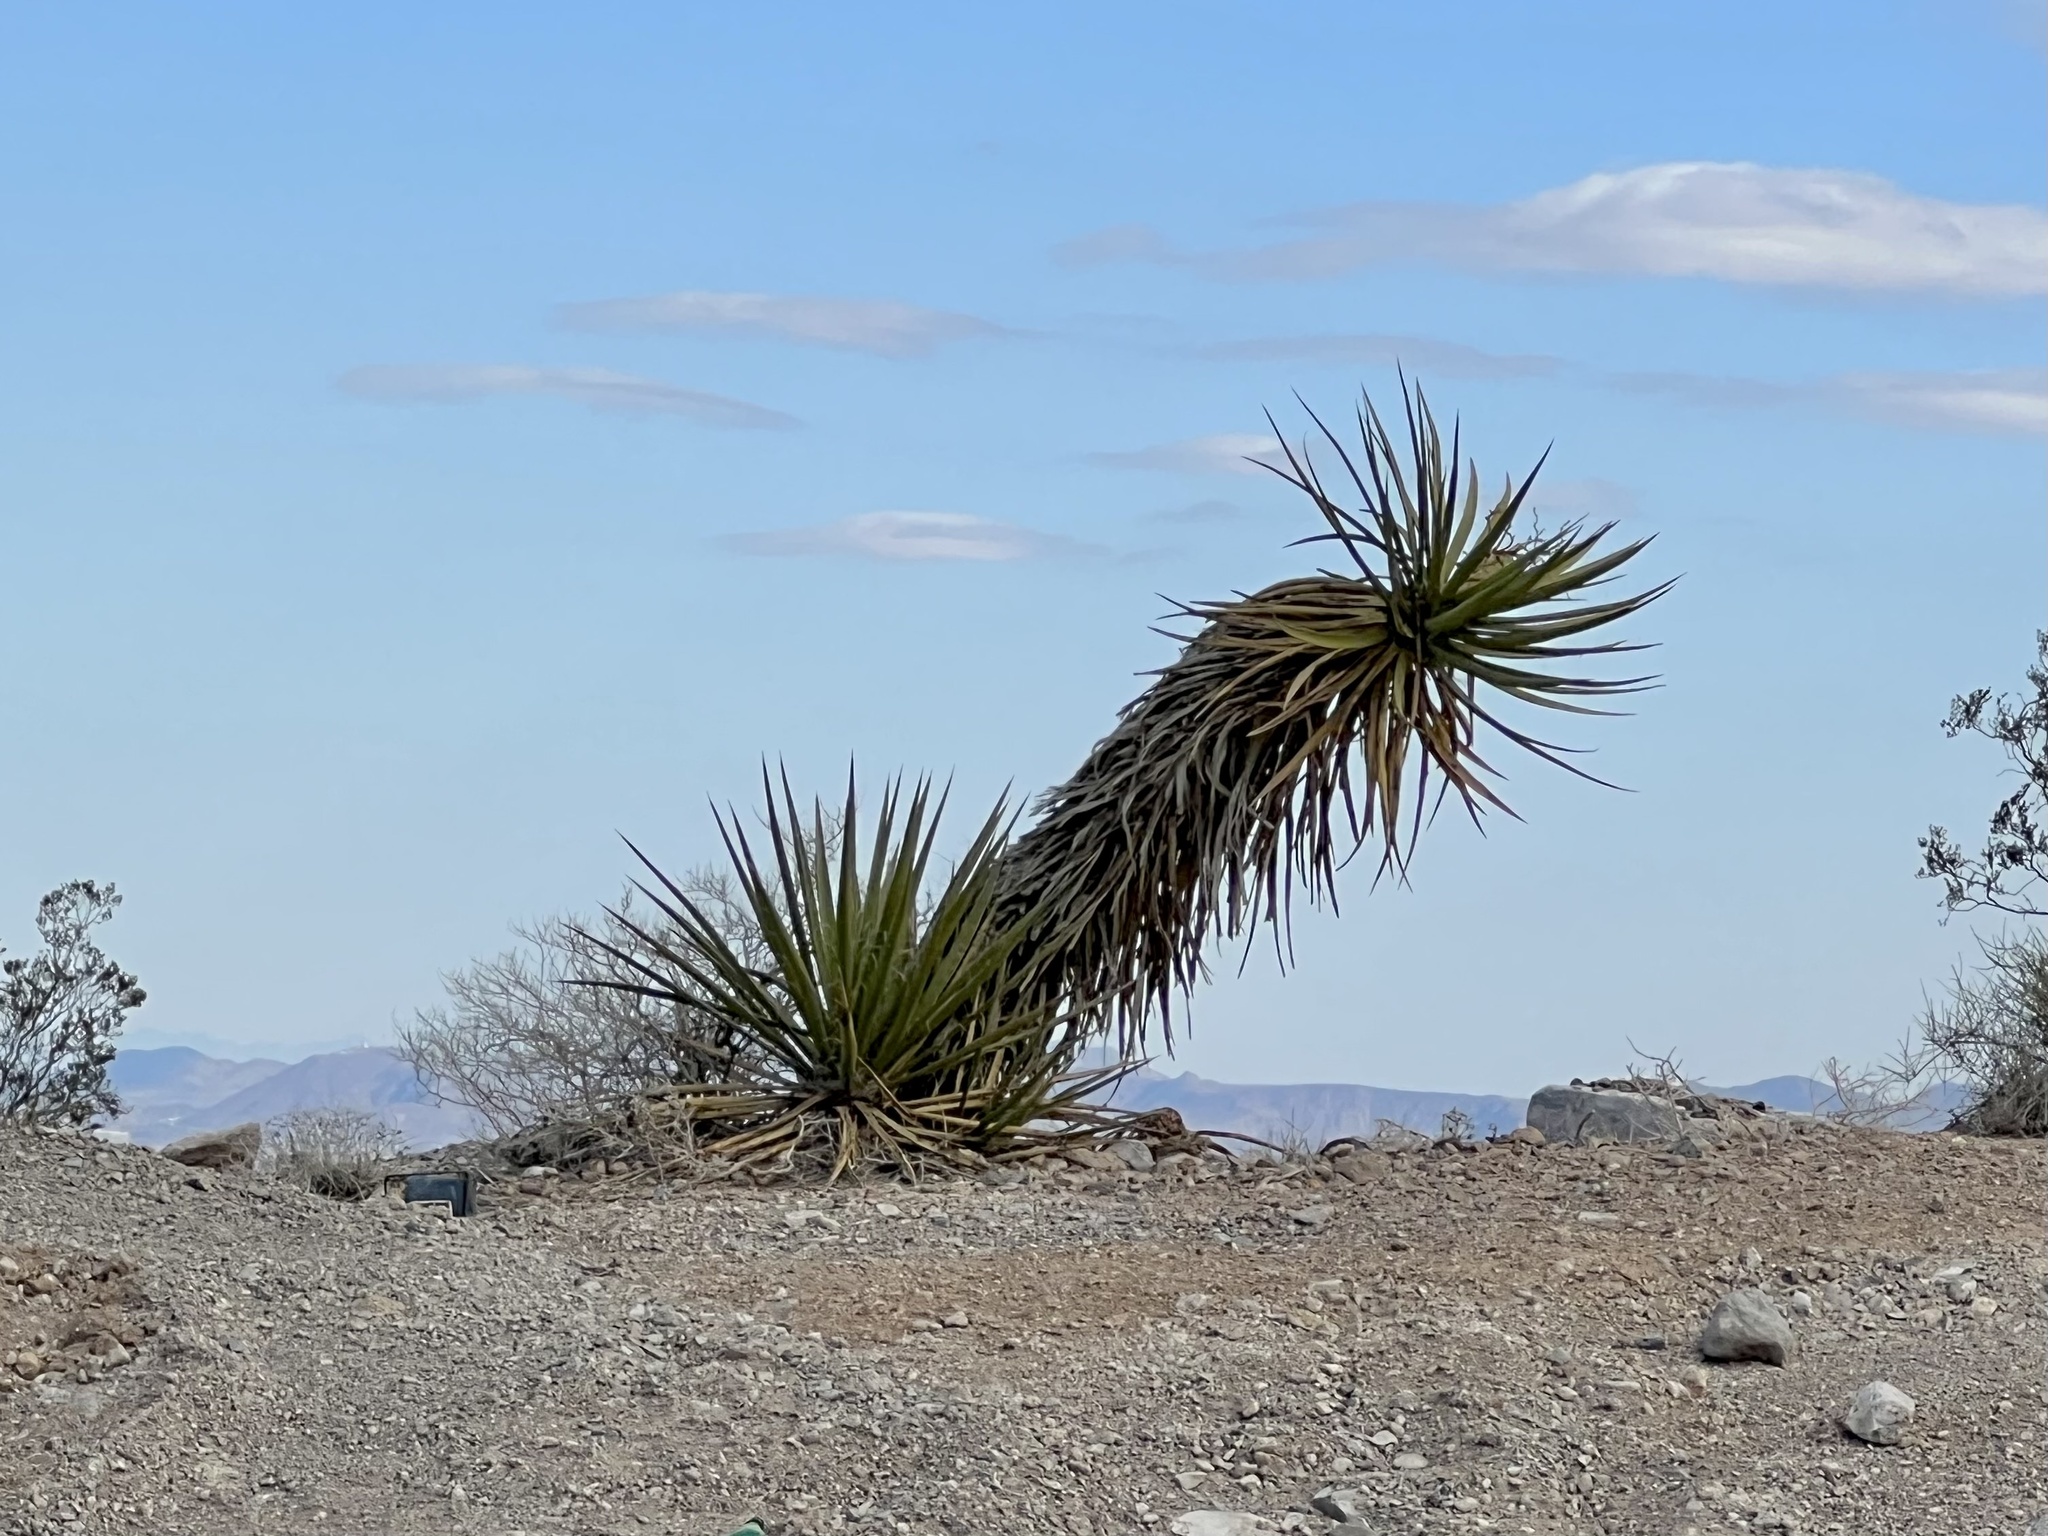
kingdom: Plantae
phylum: Tracheophyta
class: Liliopsida
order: Asparagales
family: Asparagaceae
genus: Yucca
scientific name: Yucca schidigera
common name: Mojave yucca
